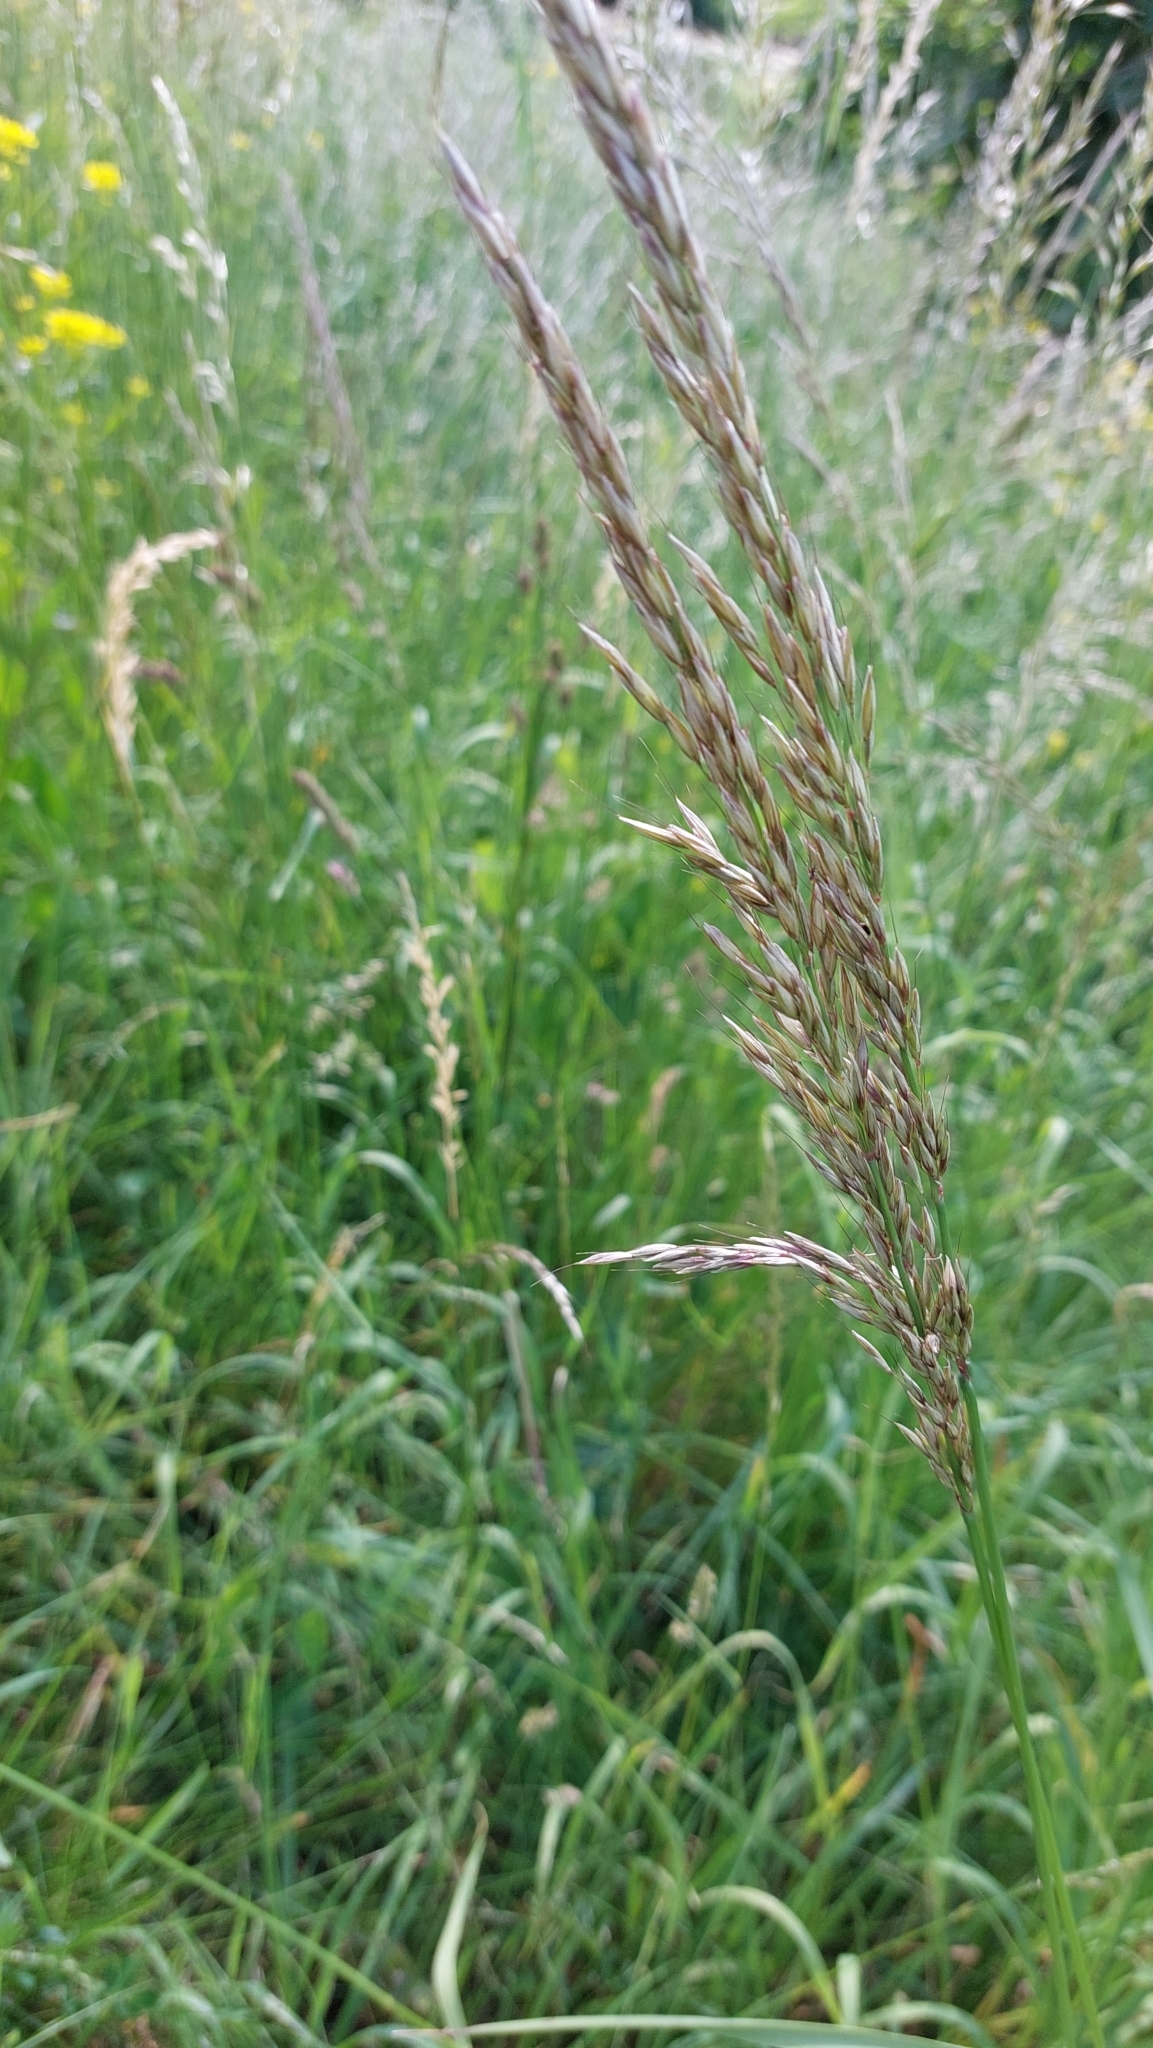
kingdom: Plantae
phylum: Tracheophyta
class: Liliopsida
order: Poales
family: Poaceae
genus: Arrhenatherum
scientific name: Arrhenatherum elatius
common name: Tall oatgrass
